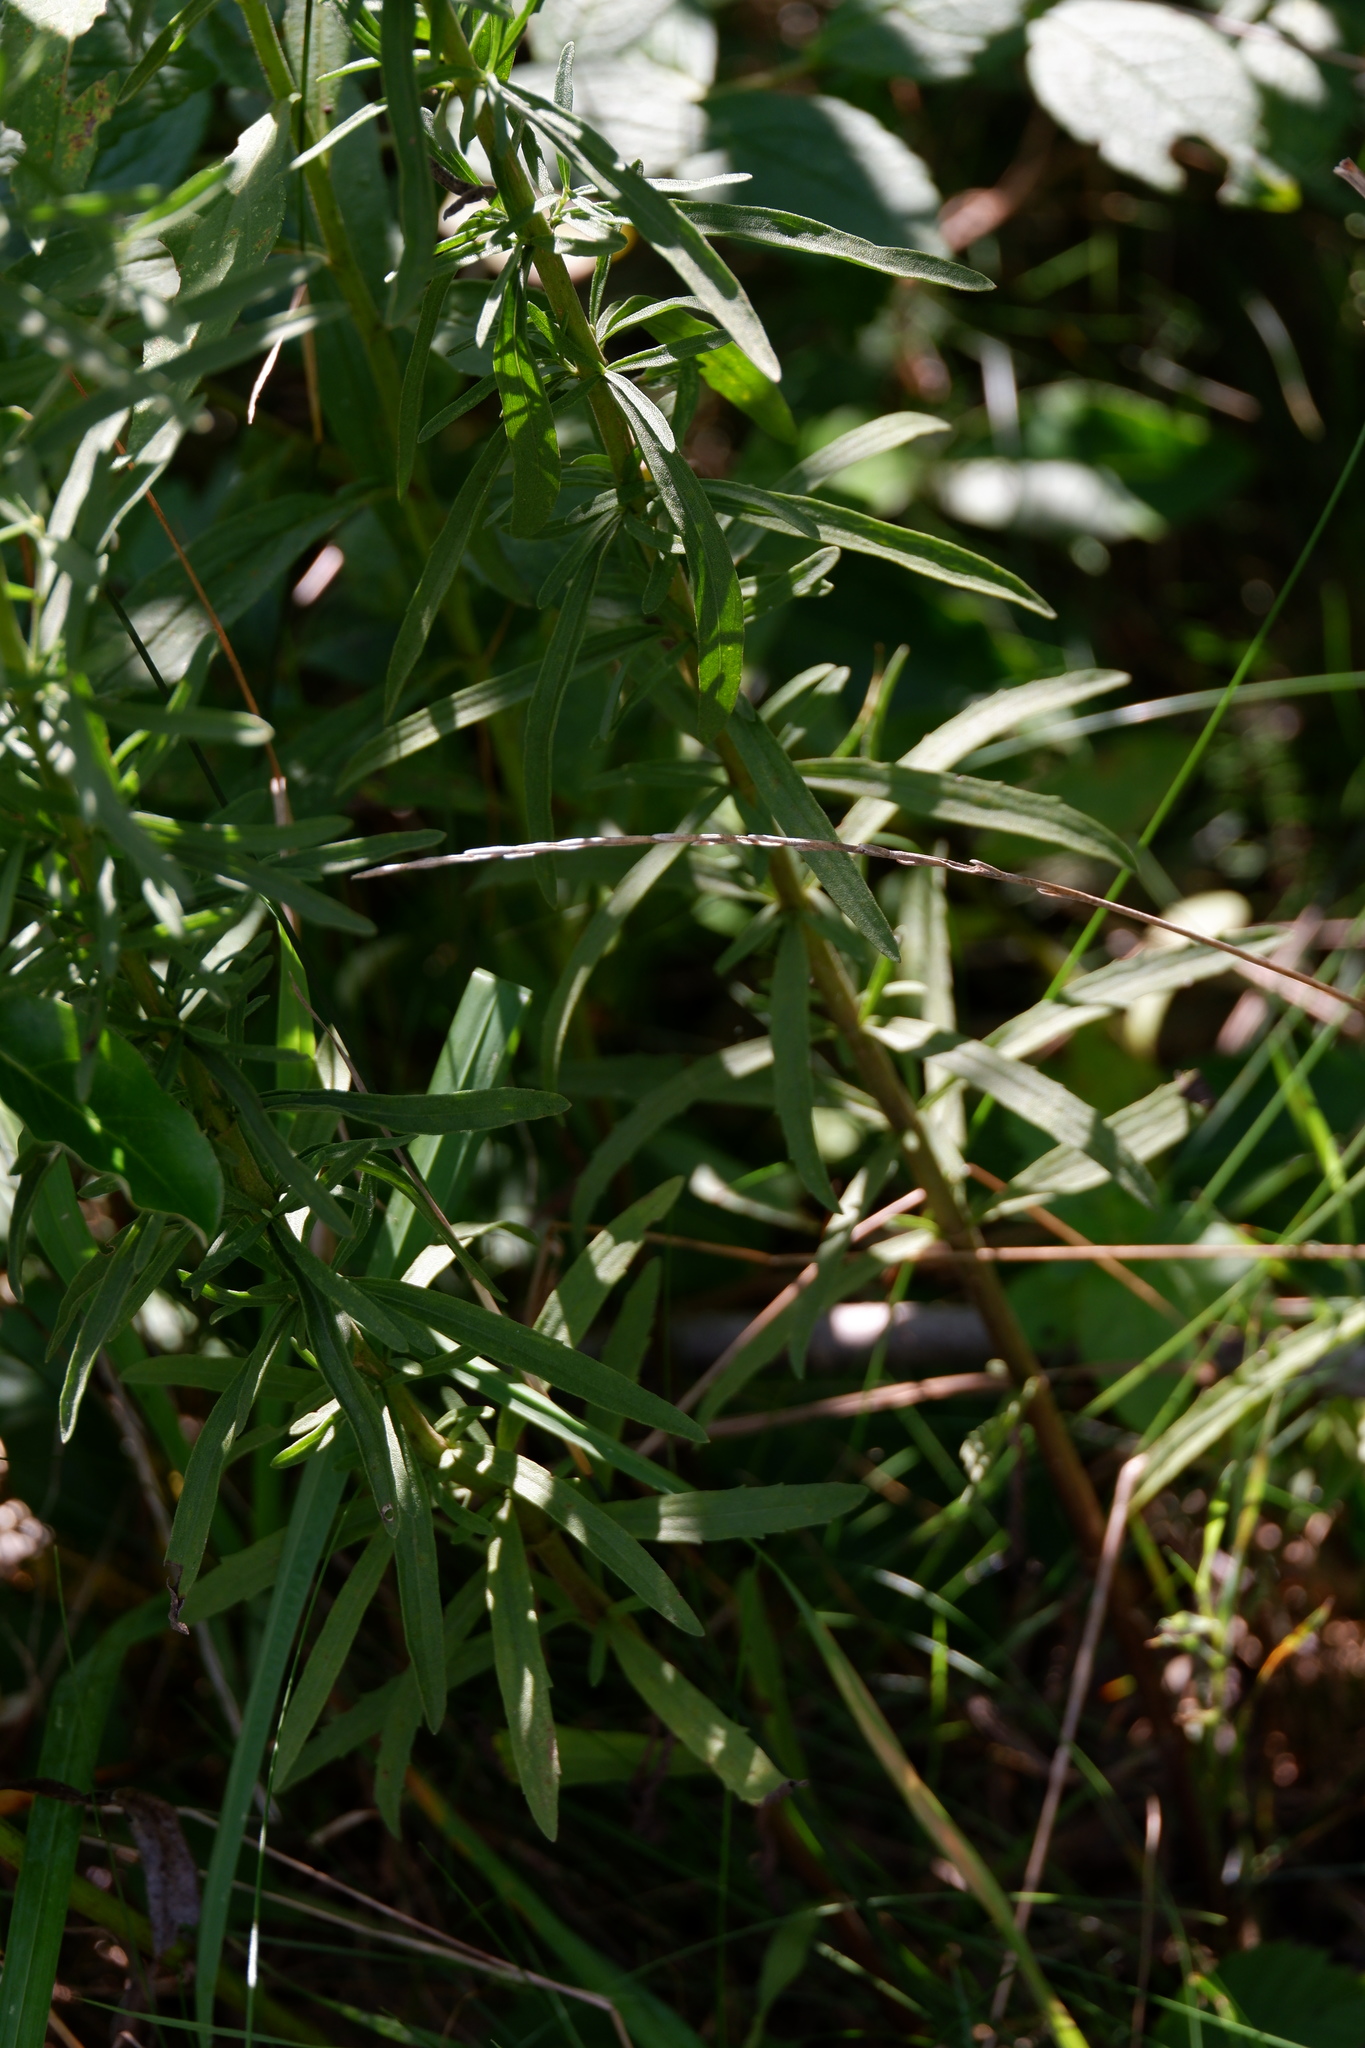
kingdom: Plantae
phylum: Tracheophyta
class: Magnoliopsida
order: Asterales
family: Asteraceae
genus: Eupatorium
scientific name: Eupatorium torreyanum
